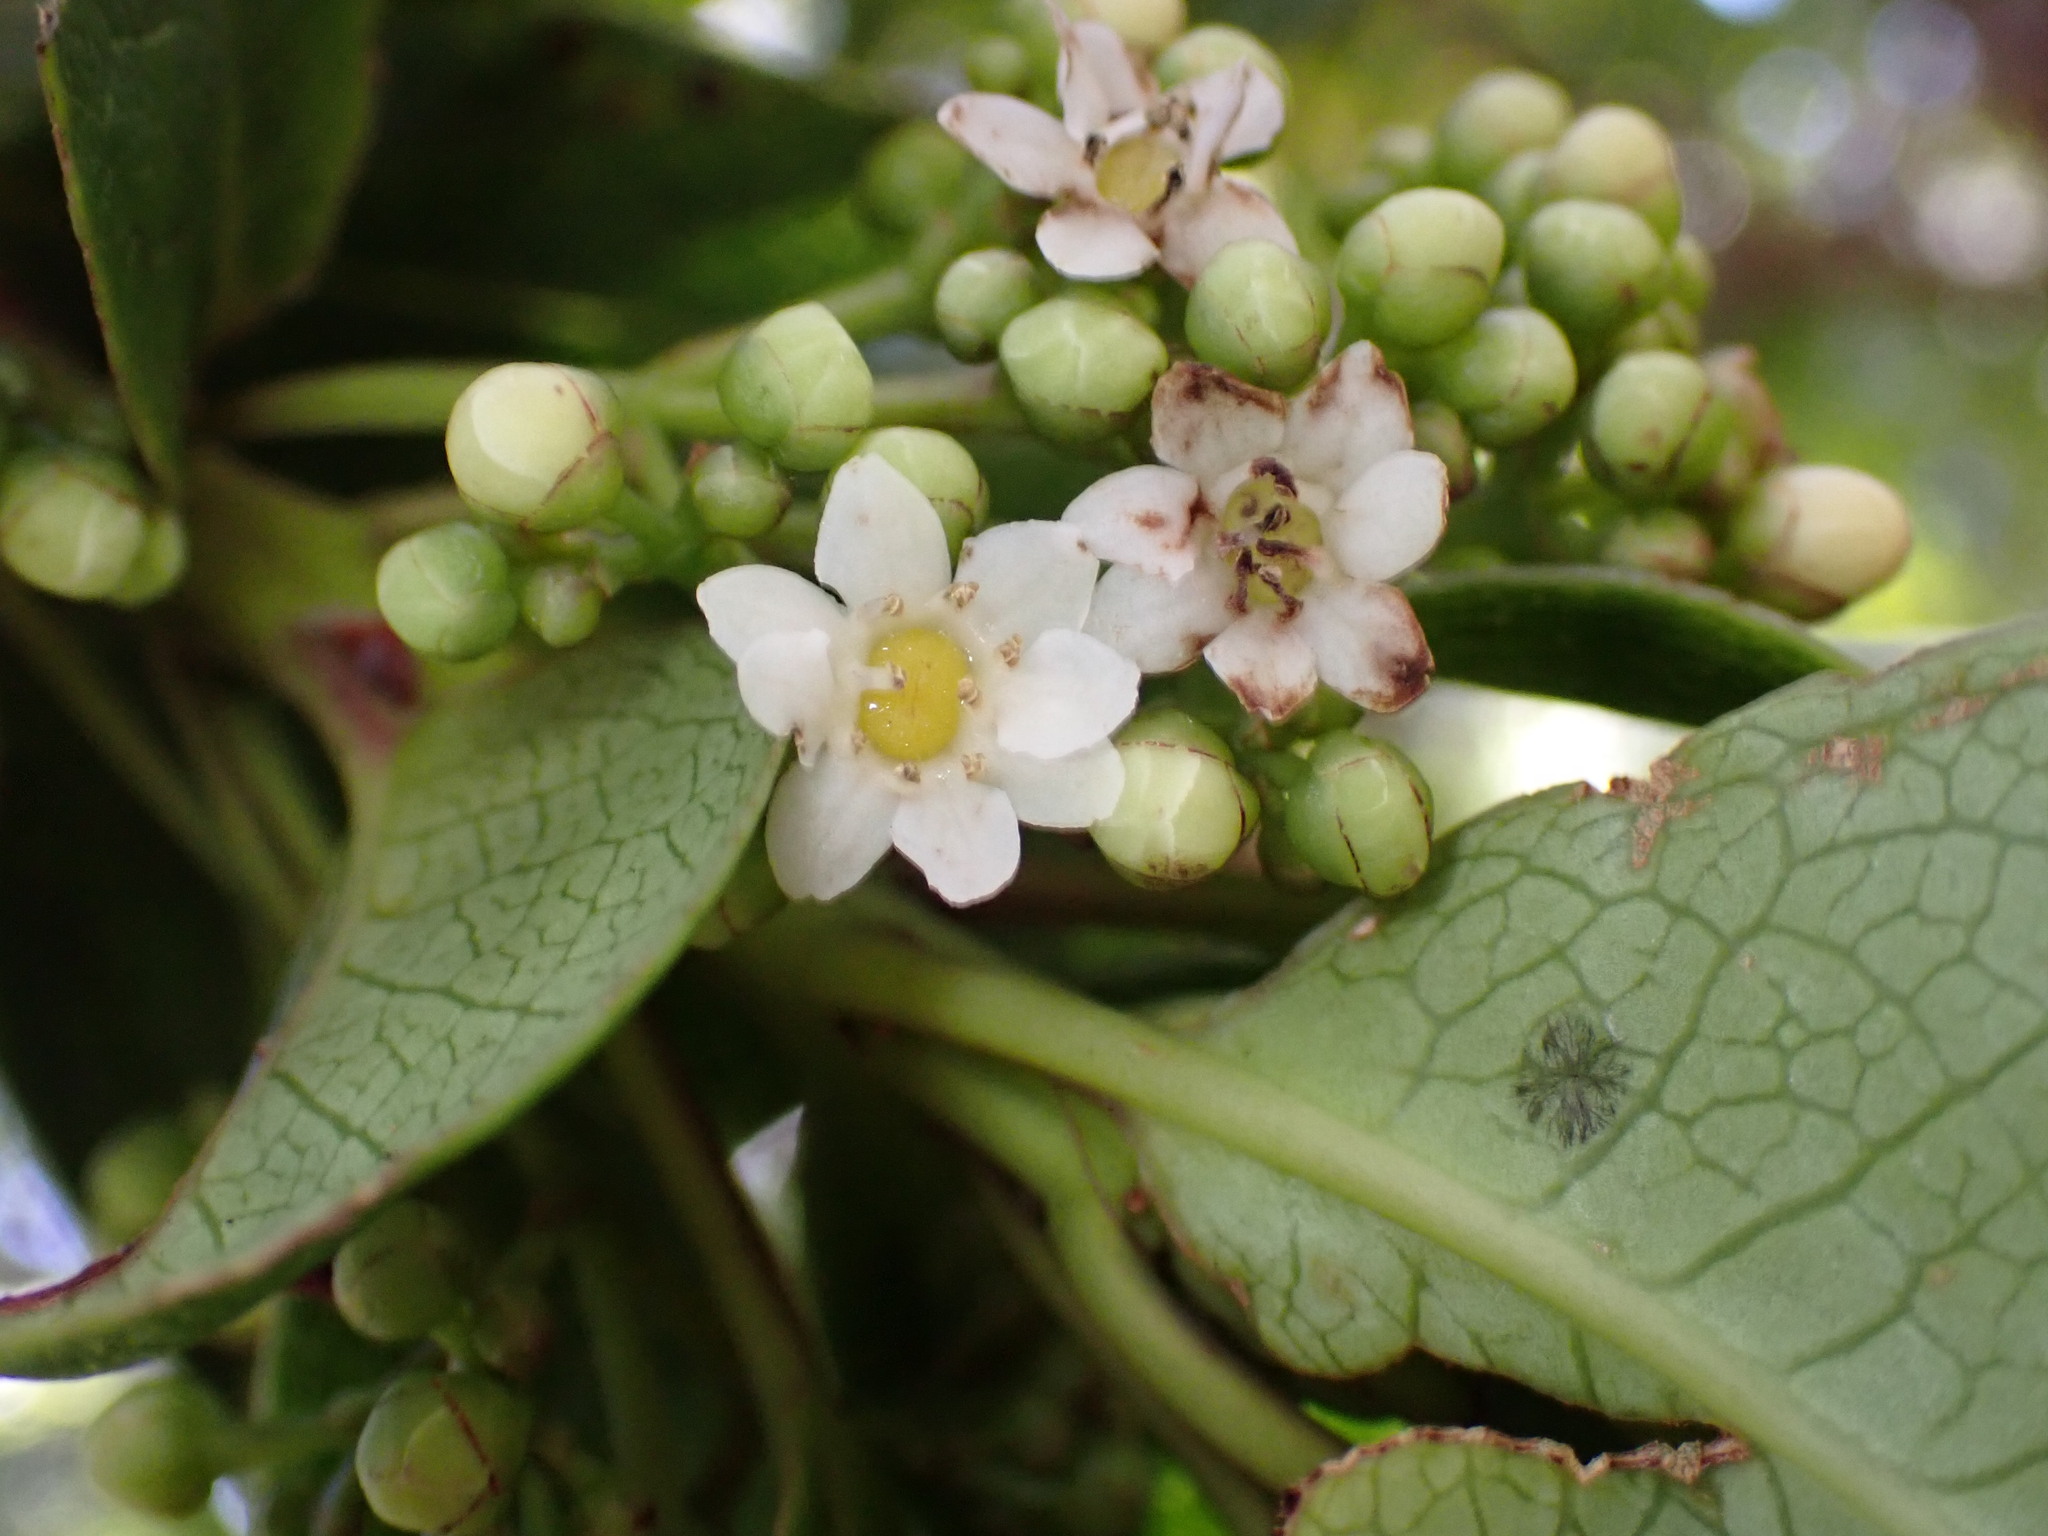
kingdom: Plantae
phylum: Tracheophyta
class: Magnoliopsida
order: Aquifoliales
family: Aquifoliaceae
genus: Ilex
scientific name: Ilex anomala
